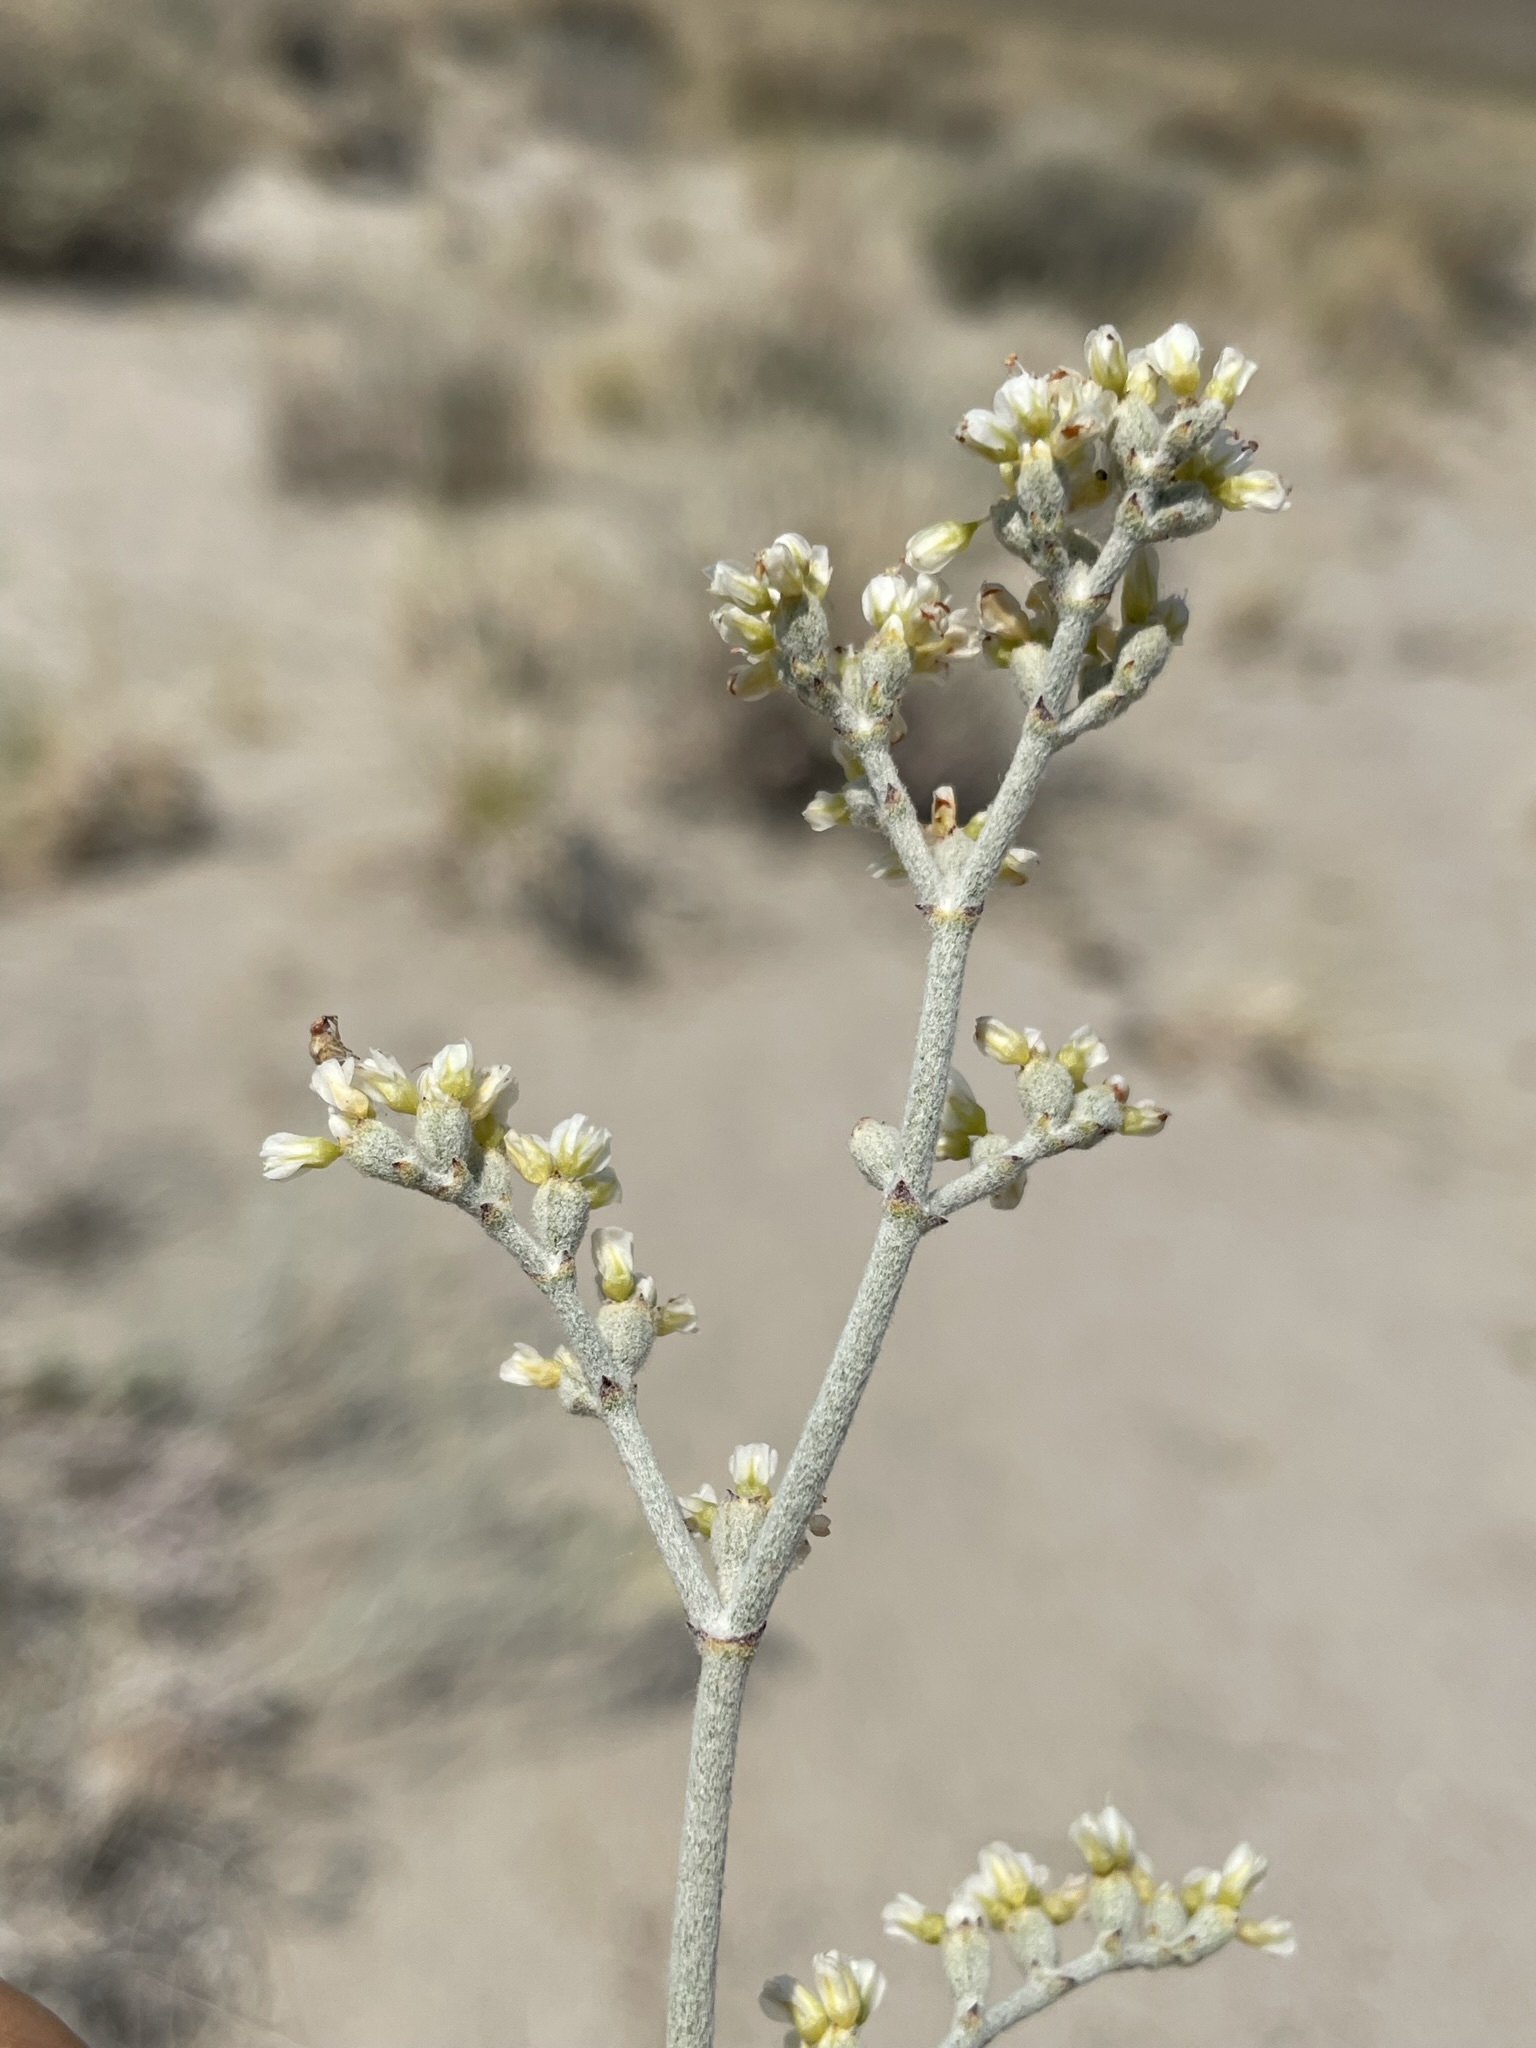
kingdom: Plantae
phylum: Tracheophyta
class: Magnoliopsida
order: Caryophyllales
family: Polygonaceae
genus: Eriogonum
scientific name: Eriogonum nummulare
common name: Kearney wild buckwheat
